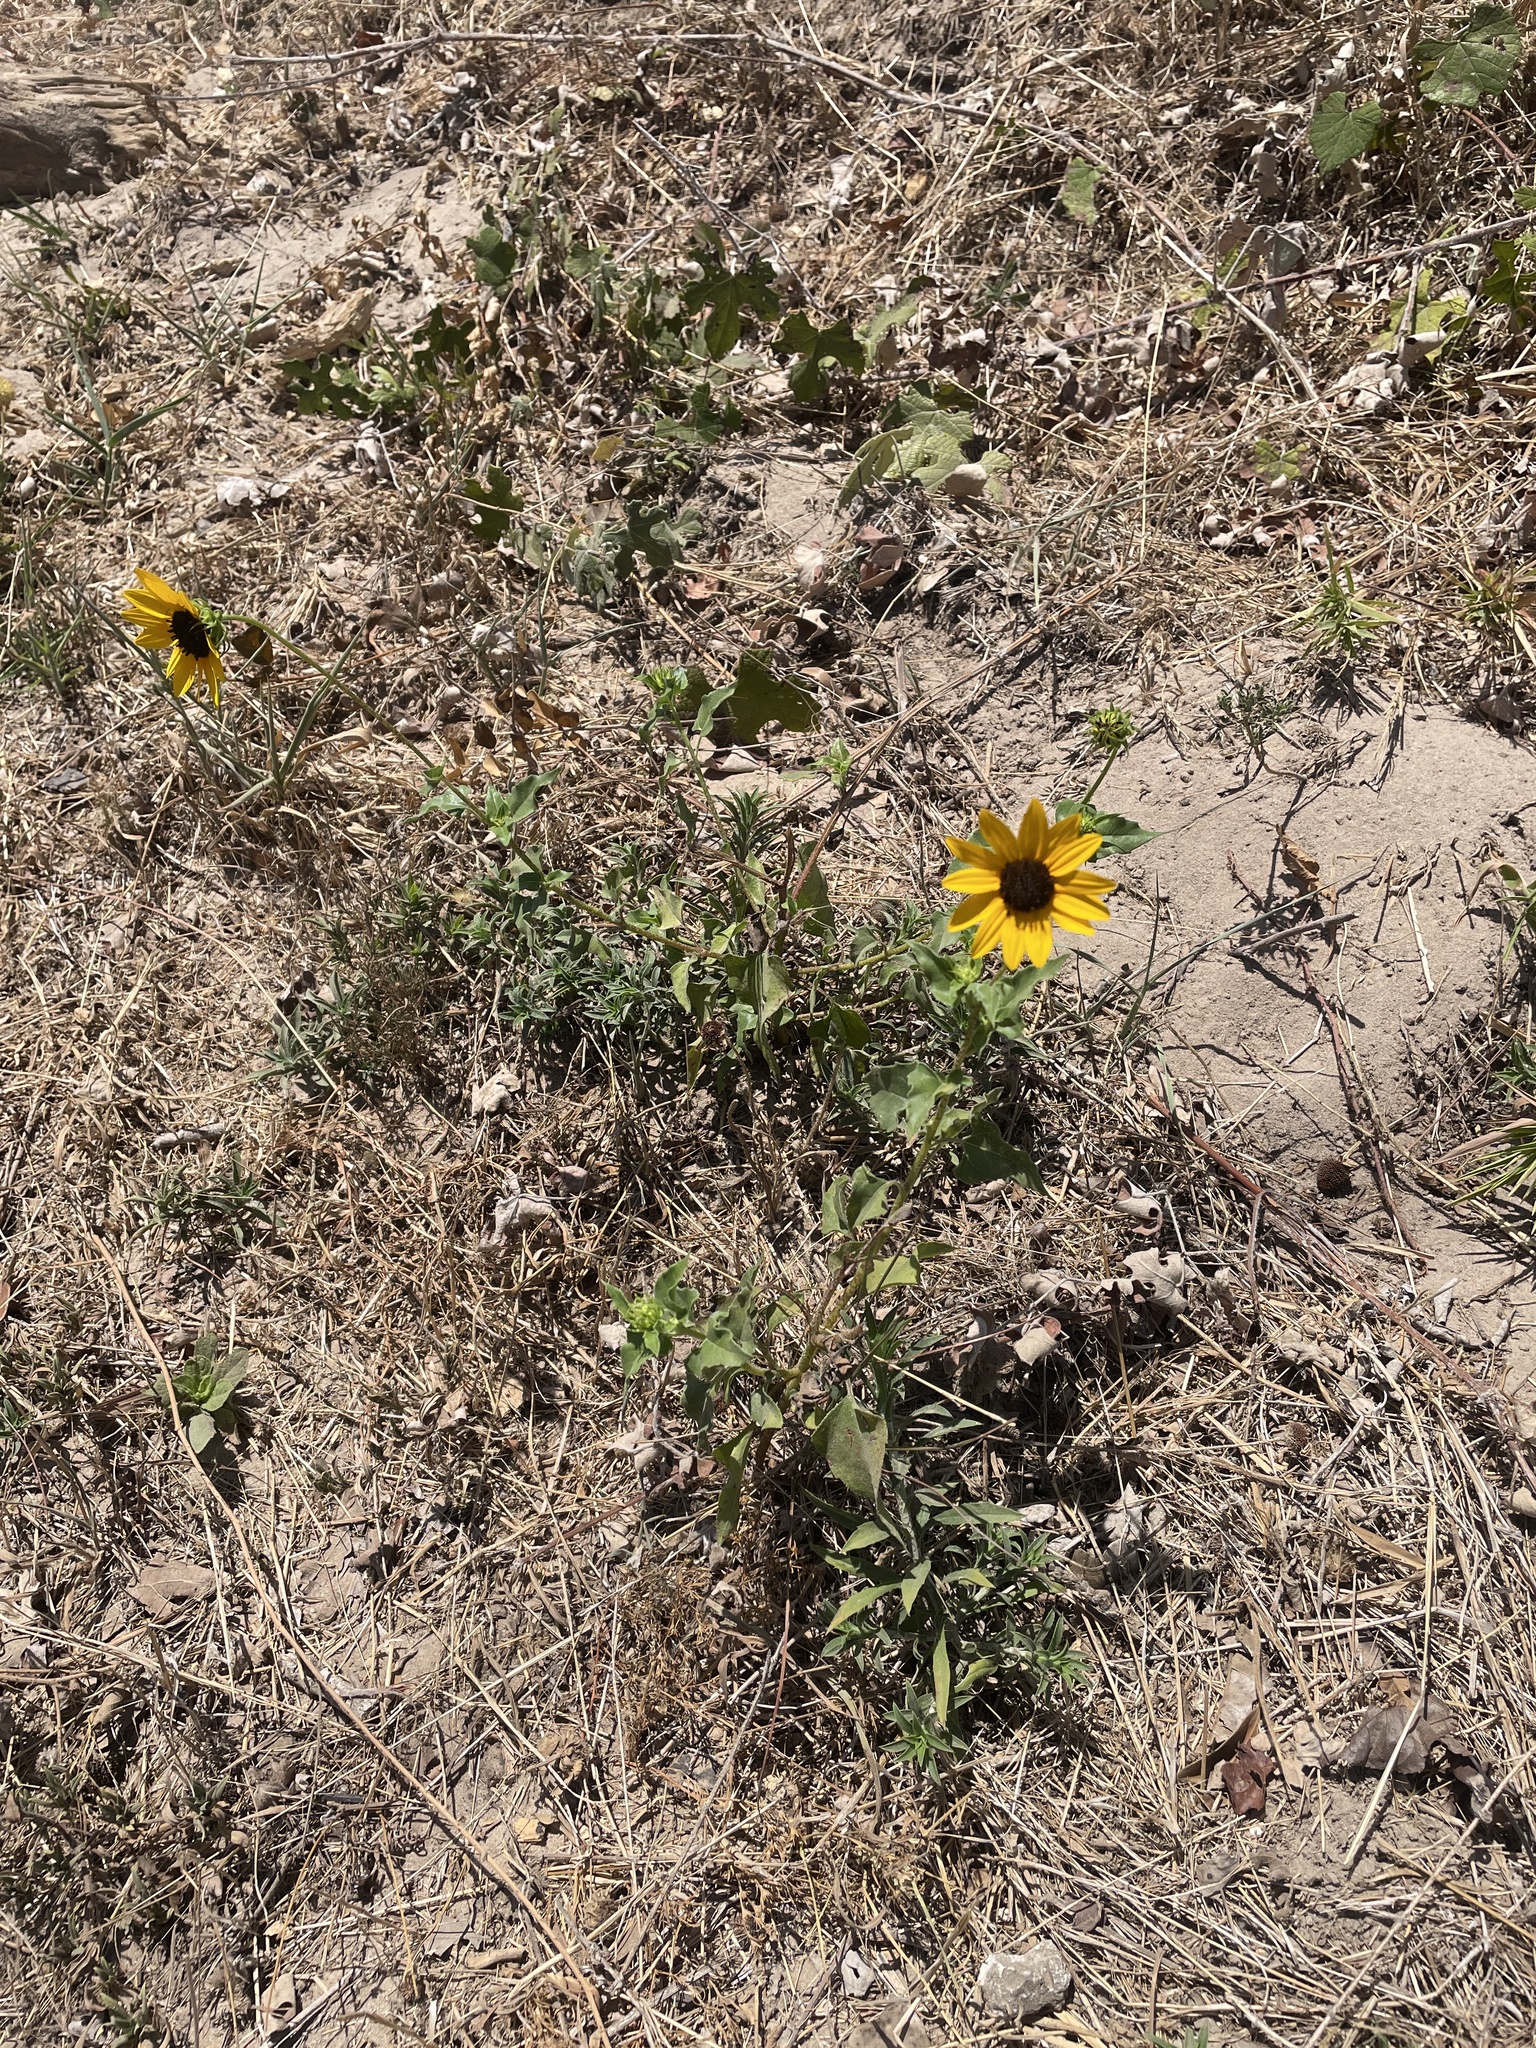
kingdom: Plantae
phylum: Tracheophyta
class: Magnoliopsida
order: Asterales
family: Asteraceae
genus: Helianthus
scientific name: Helianthus debilis
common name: Weak sunflower
